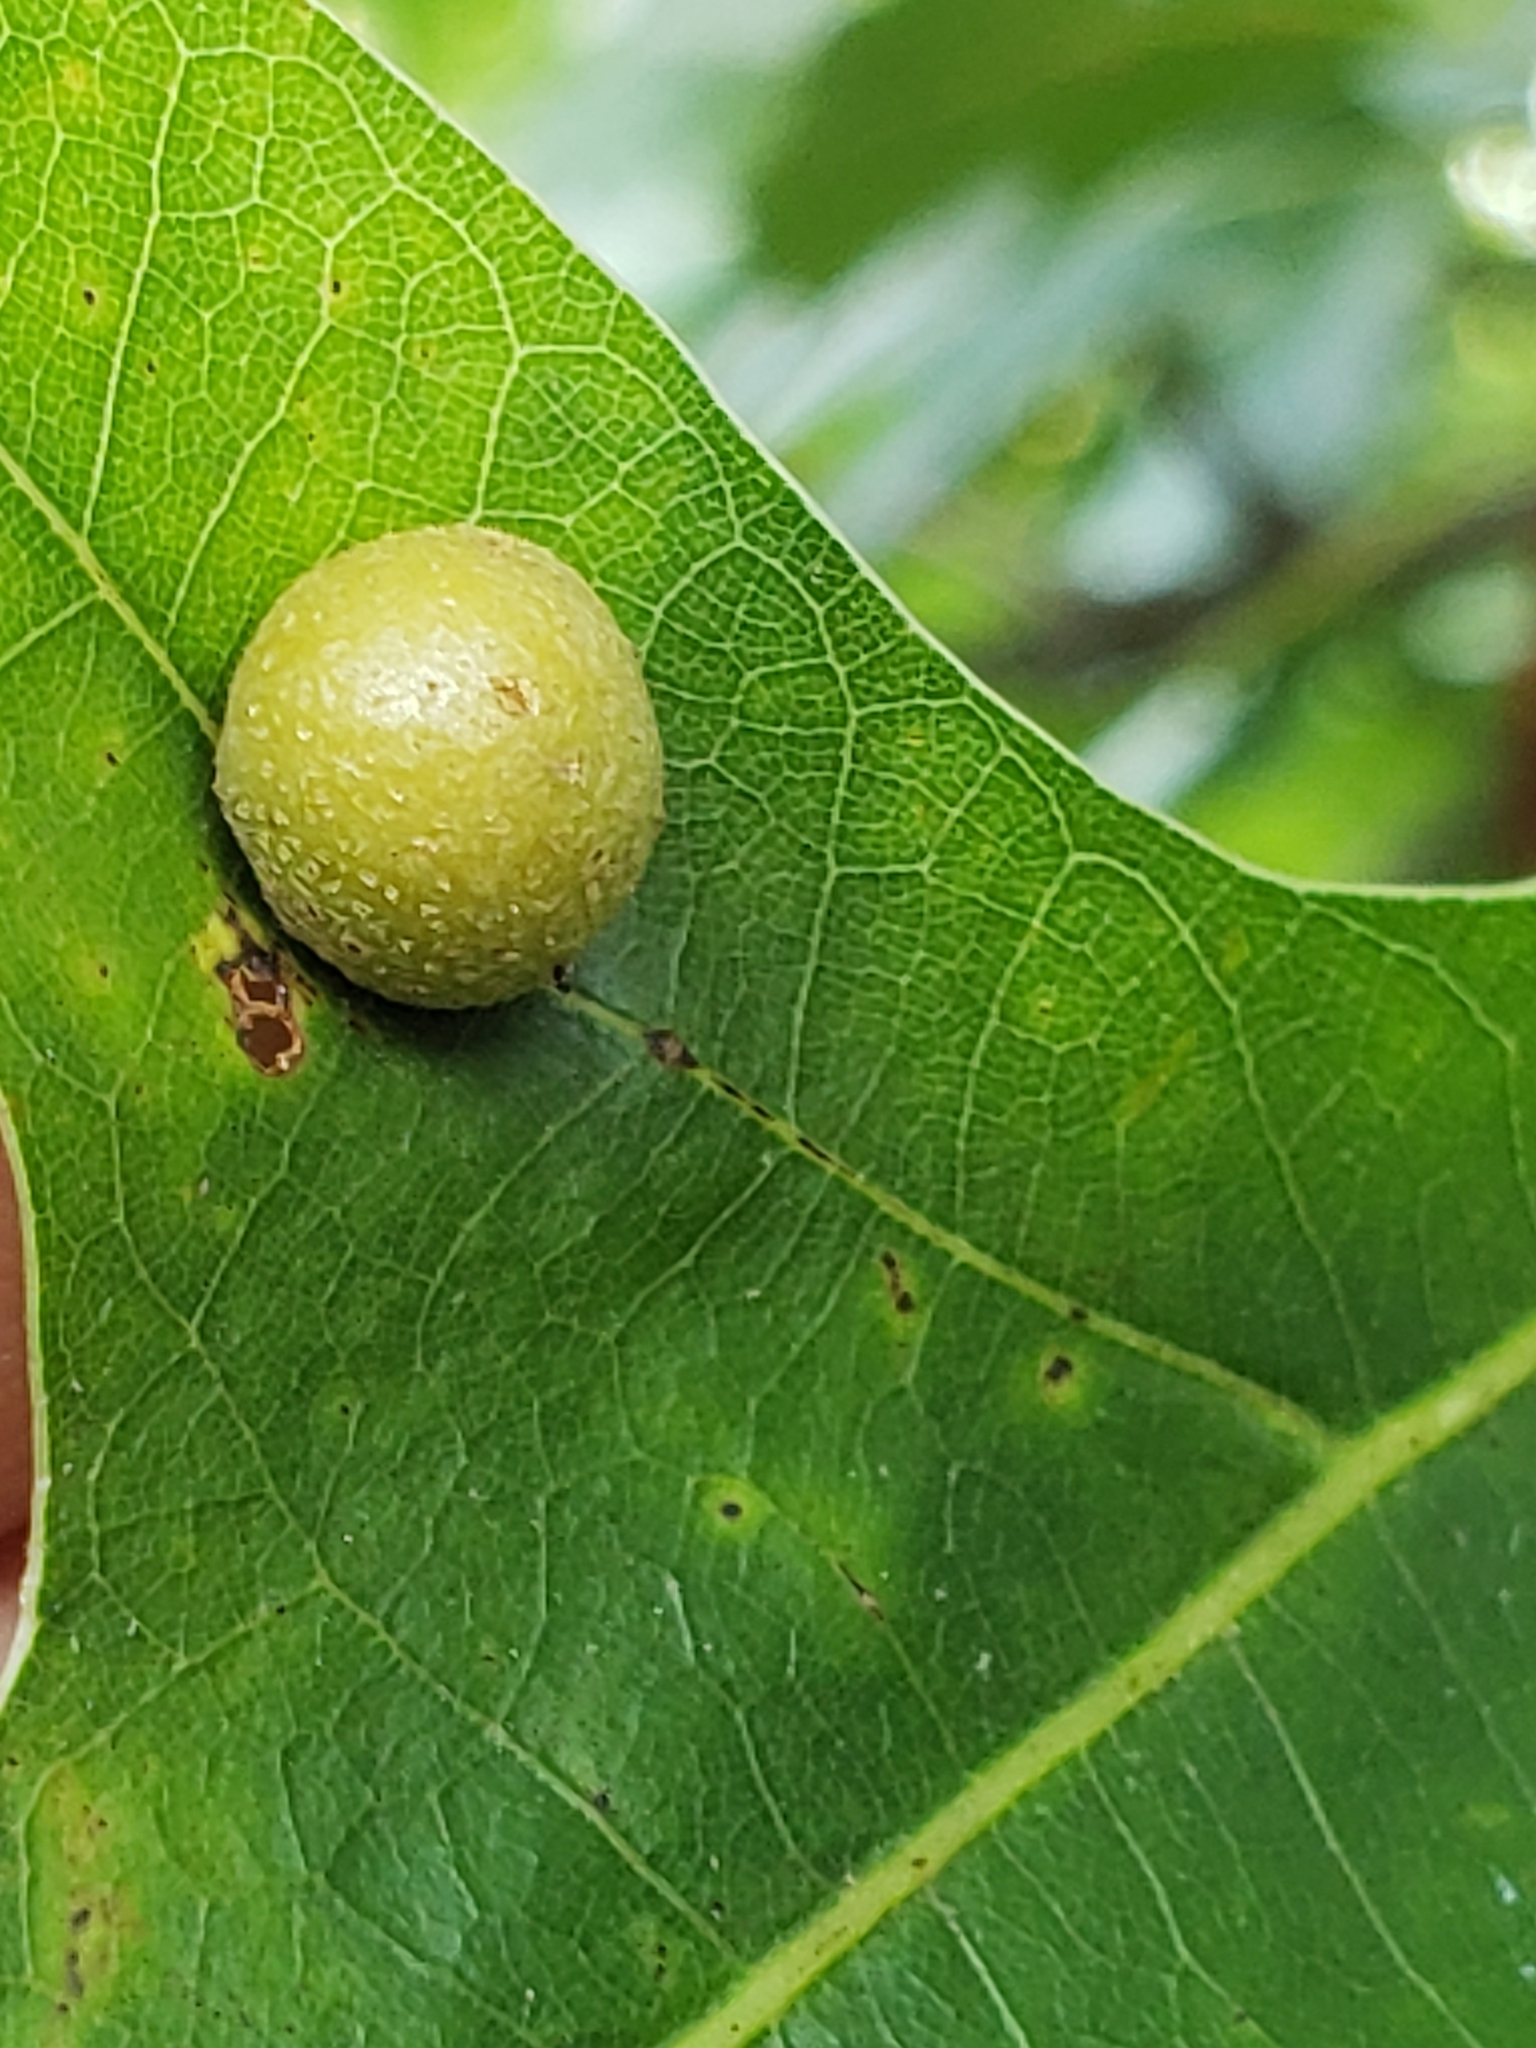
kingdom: Animalia
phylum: Arthropoda
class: Insecta
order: Diptera
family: Cecidomyiidae
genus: Polystepha
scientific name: Polystepha pilulae
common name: Oak leaf gall midge
